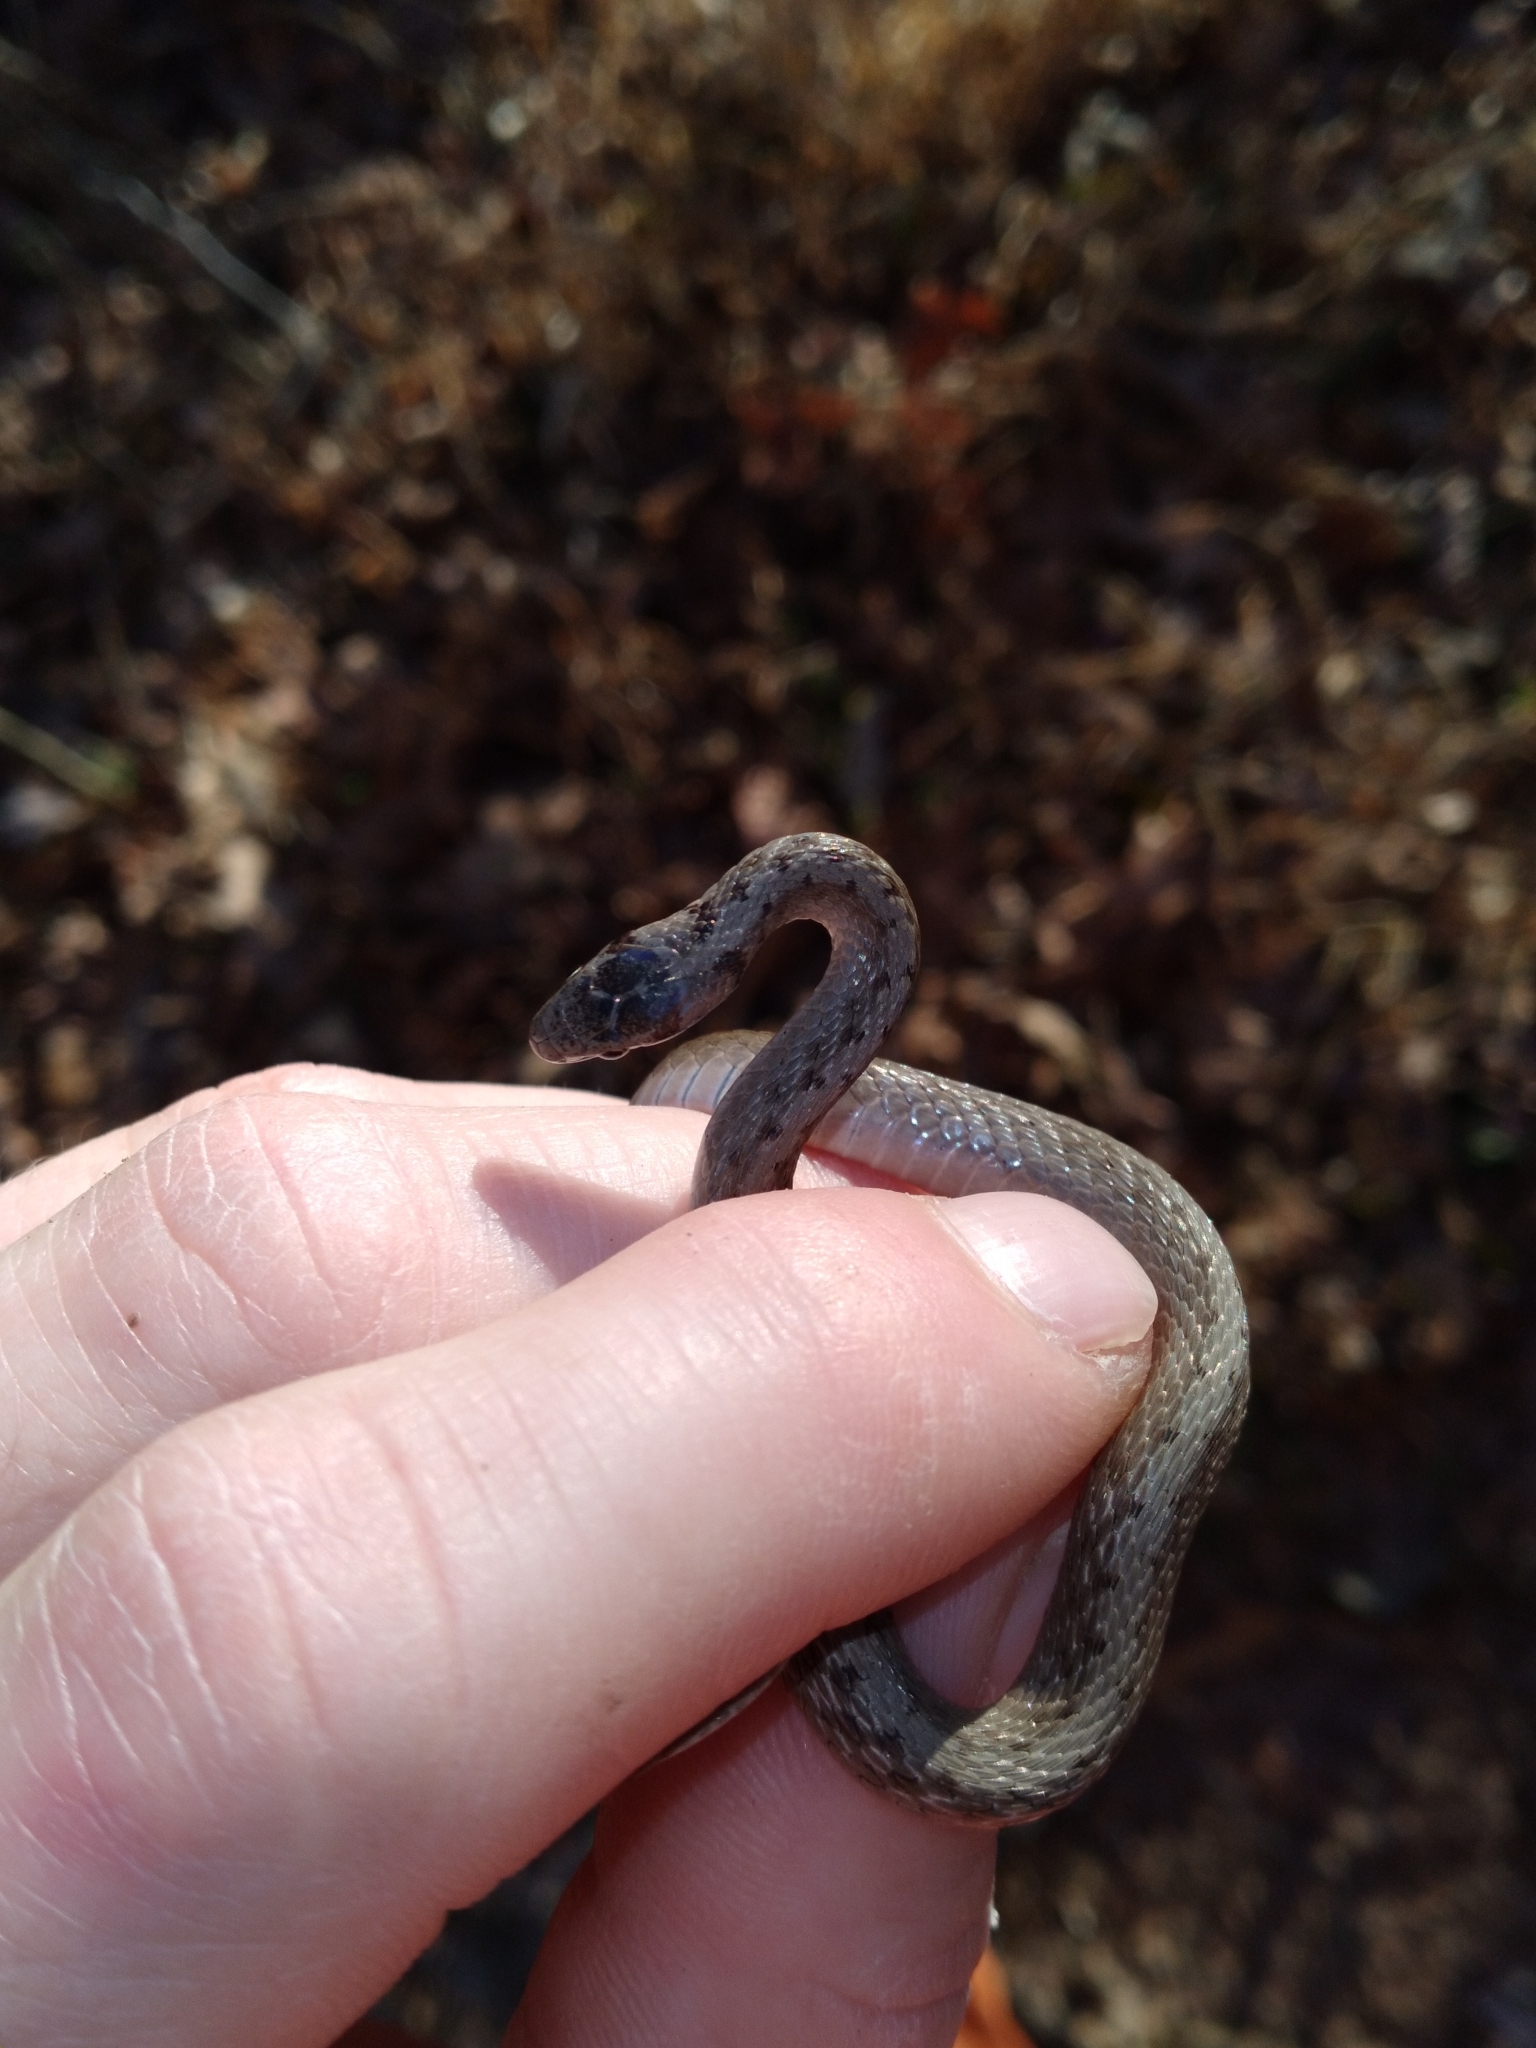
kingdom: Animalia
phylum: Chordata
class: Squamata
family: Colubridae
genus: Storeria
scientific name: Storeria dekayi
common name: (dekay’s) brown snake
